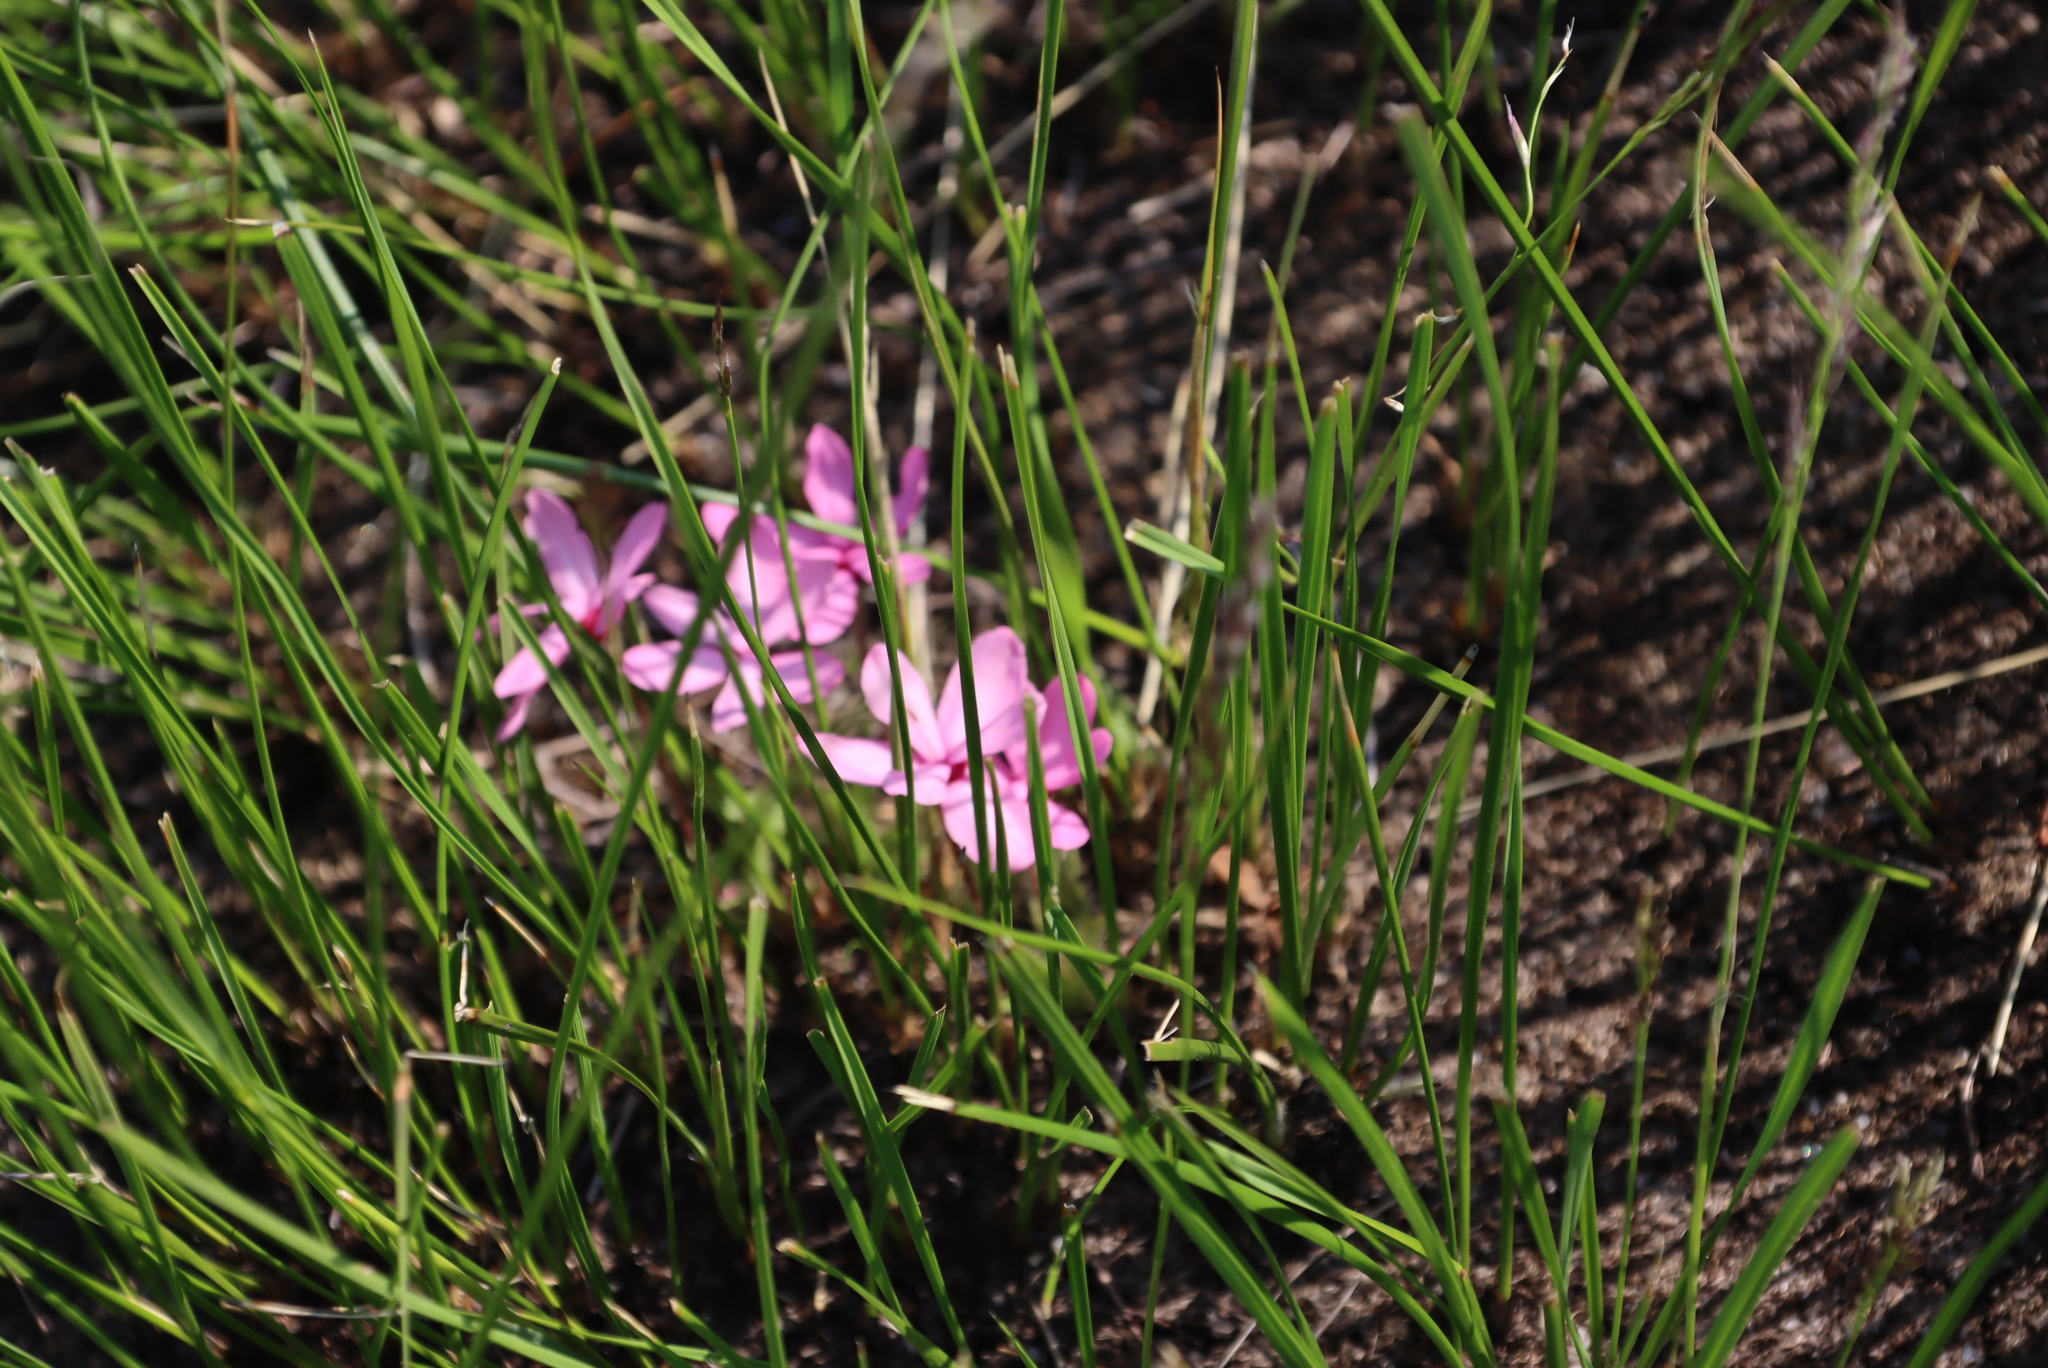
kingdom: Plantae
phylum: Tracheophyta
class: Liliopsida
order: Asparagales
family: Hypoxidaceae
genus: Hypoxis
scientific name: Hypoxis baurii
